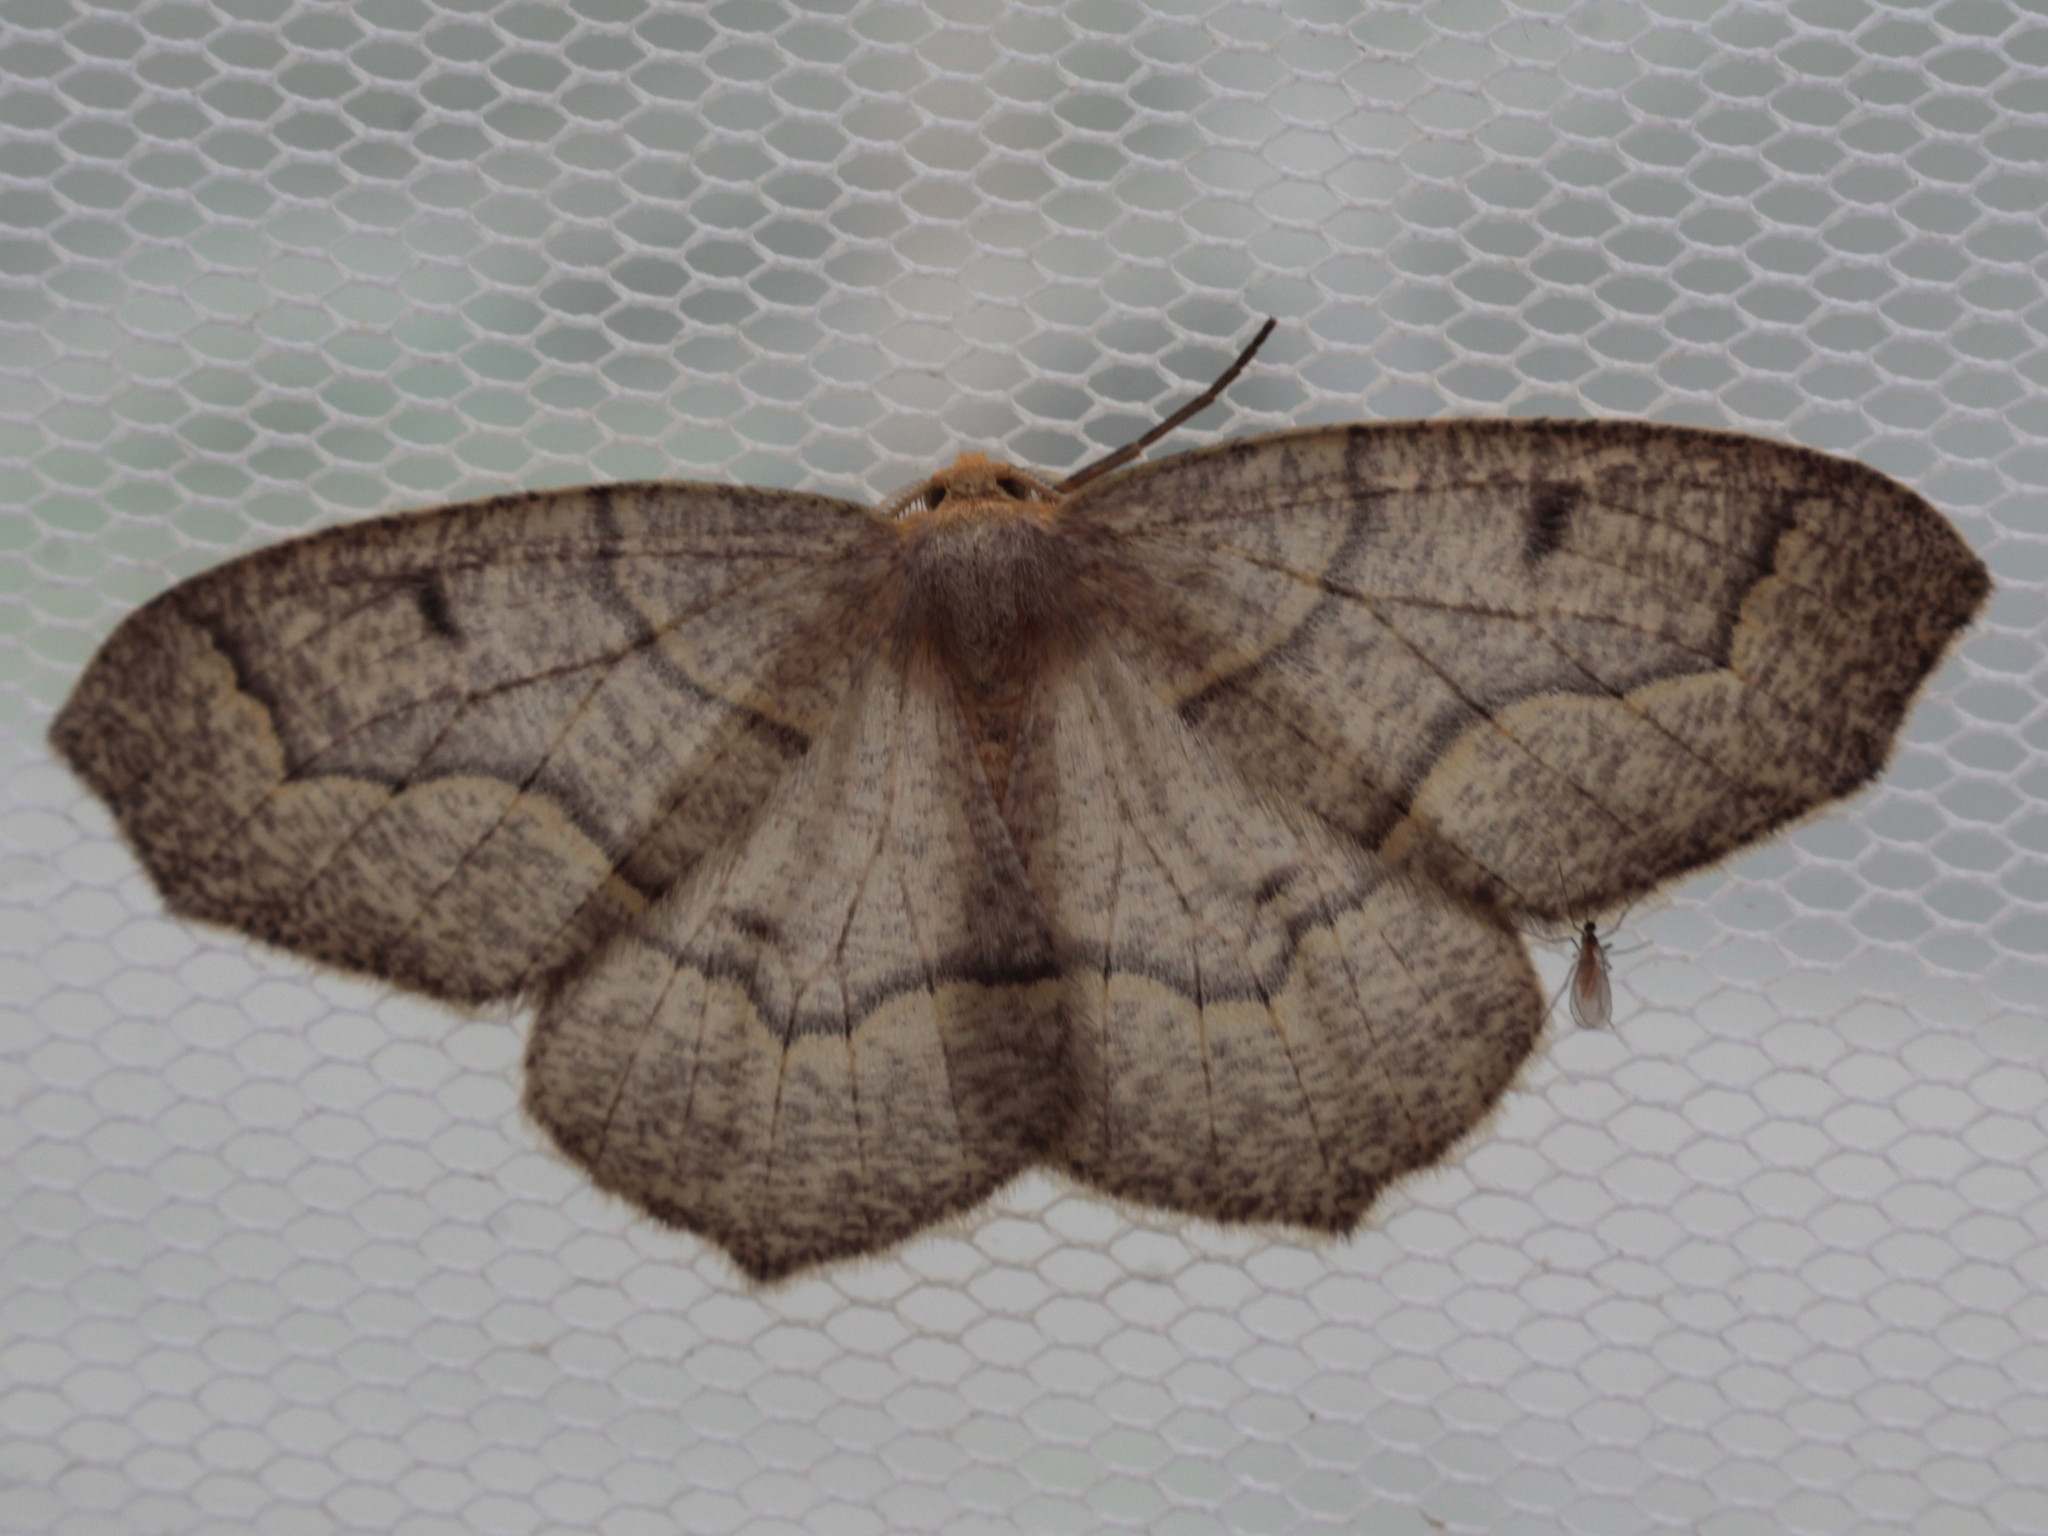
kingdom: Animalia
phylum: Arthropoda
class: Insecta
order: Lepidoptera
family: Geometridae
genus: Lambdina
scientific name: Lambdina fiscellaria
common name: Hemlock looper
